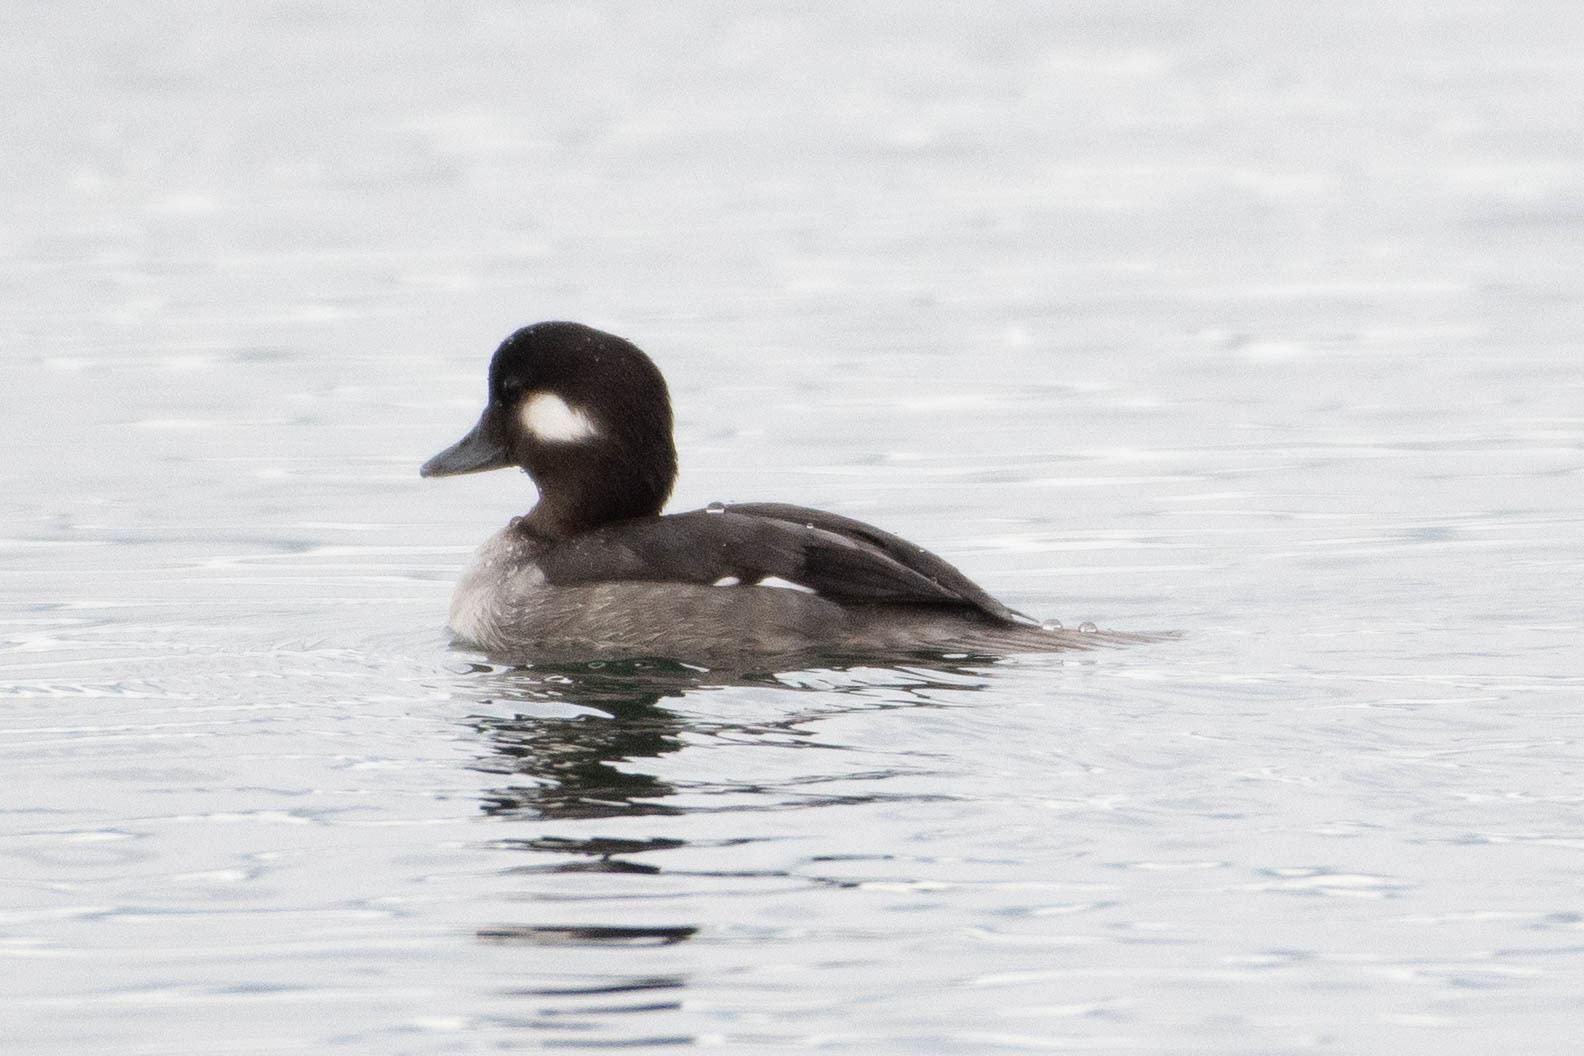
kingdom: Animalia
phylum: Chordata
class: Aves
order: Anseriformes
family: Anatidae
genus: Bucephala
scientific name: Bucephala albeola
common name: Bufflehead
